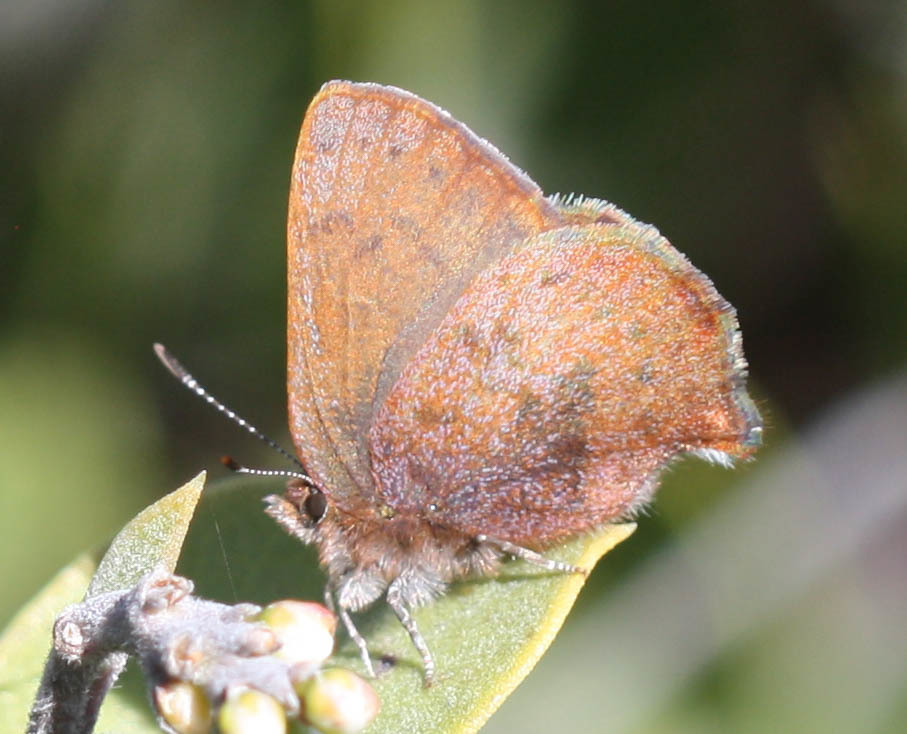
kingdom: Animalia
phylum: Arthropoda
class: Insecta
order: Lepidoptera
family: Lycaenidae
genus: Incisalia
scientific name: Incisalia irioides
